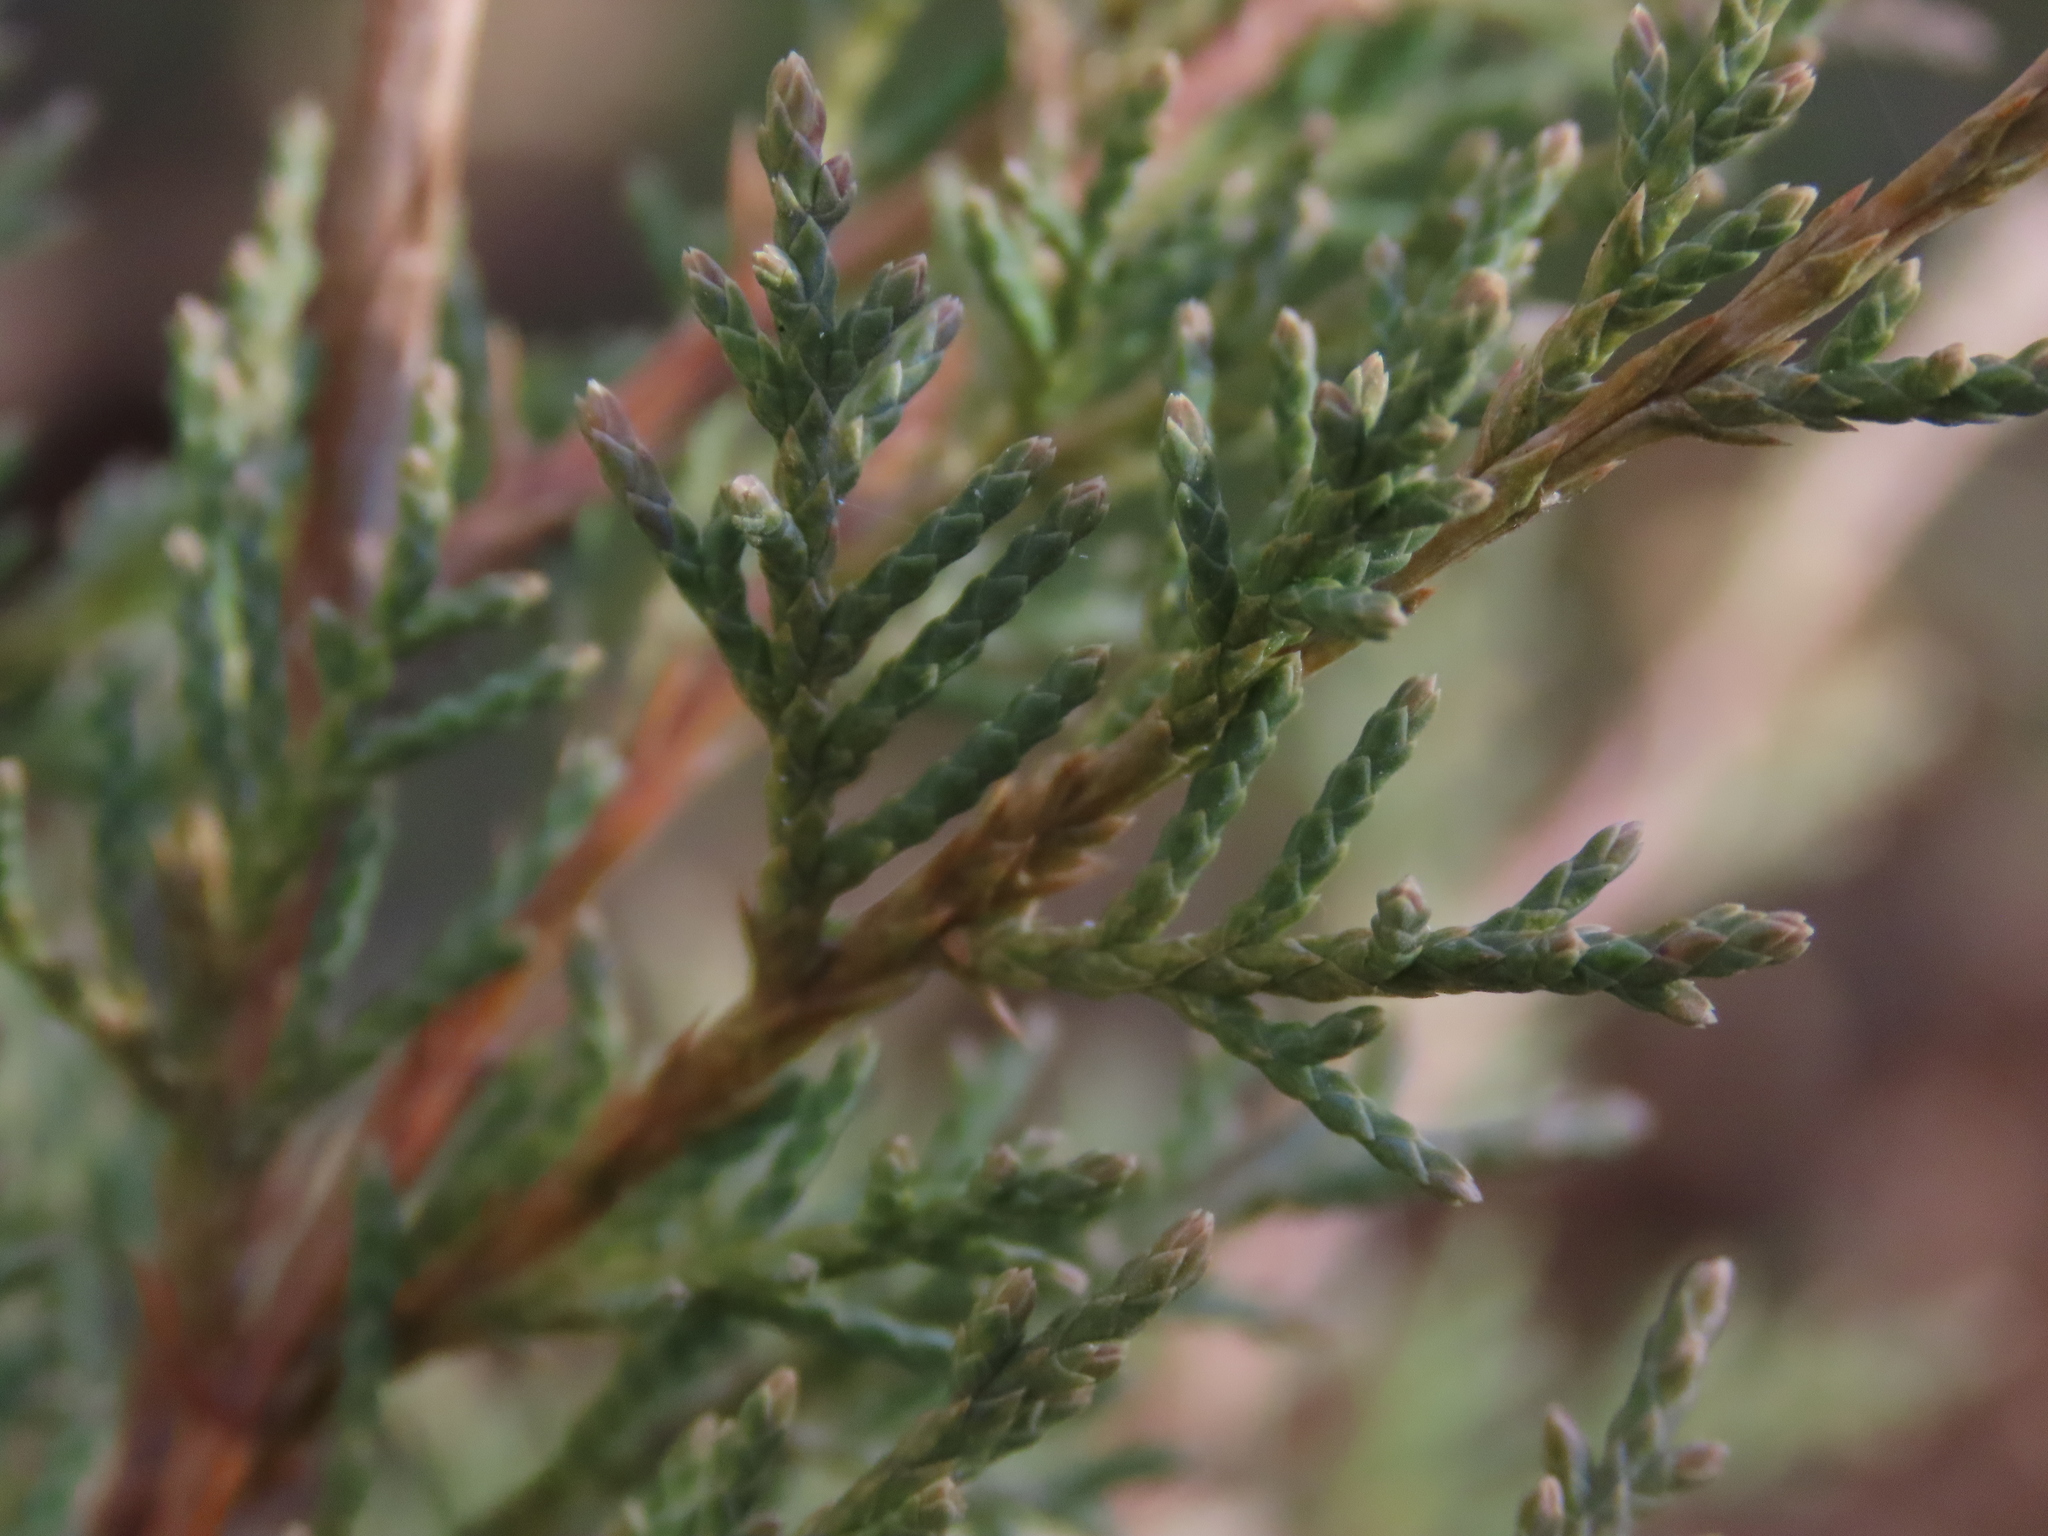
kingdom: Plantae
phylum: Tracheophyta
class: Pinopsida
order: Pinales
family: Cupressaceae
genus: Juniperus
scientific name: Juniperus virginiana
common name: Red juniper
